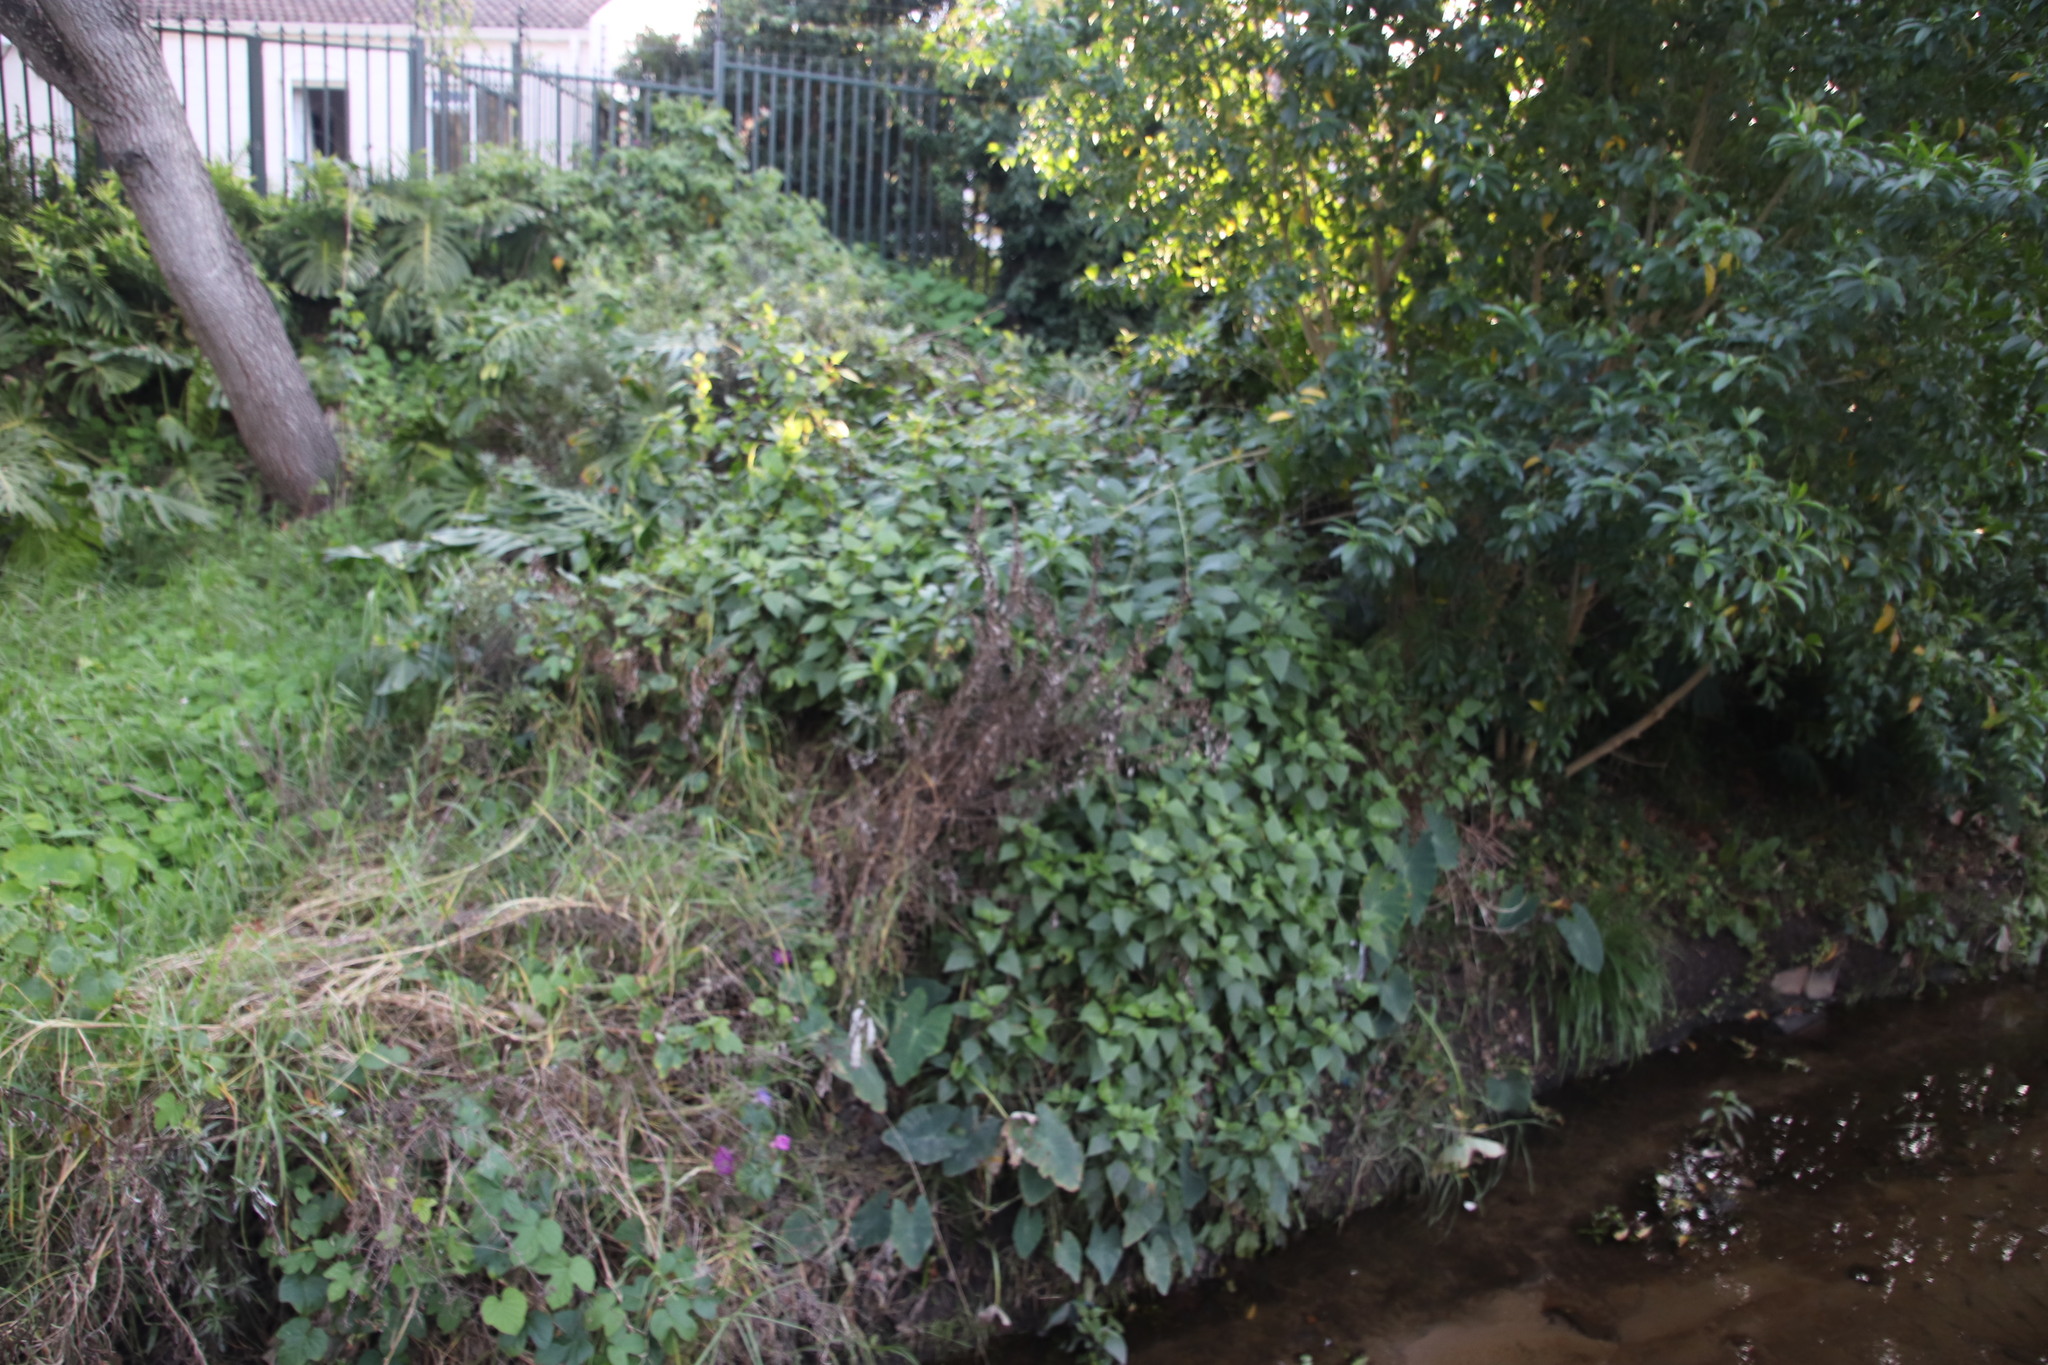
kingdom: Plantae
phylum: Tracheophyta
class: Magnoliopsida
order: Asterales
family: Asteraceae
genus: Ageratina
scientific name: Ageratina adenophora
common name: Sticky snakeroot
